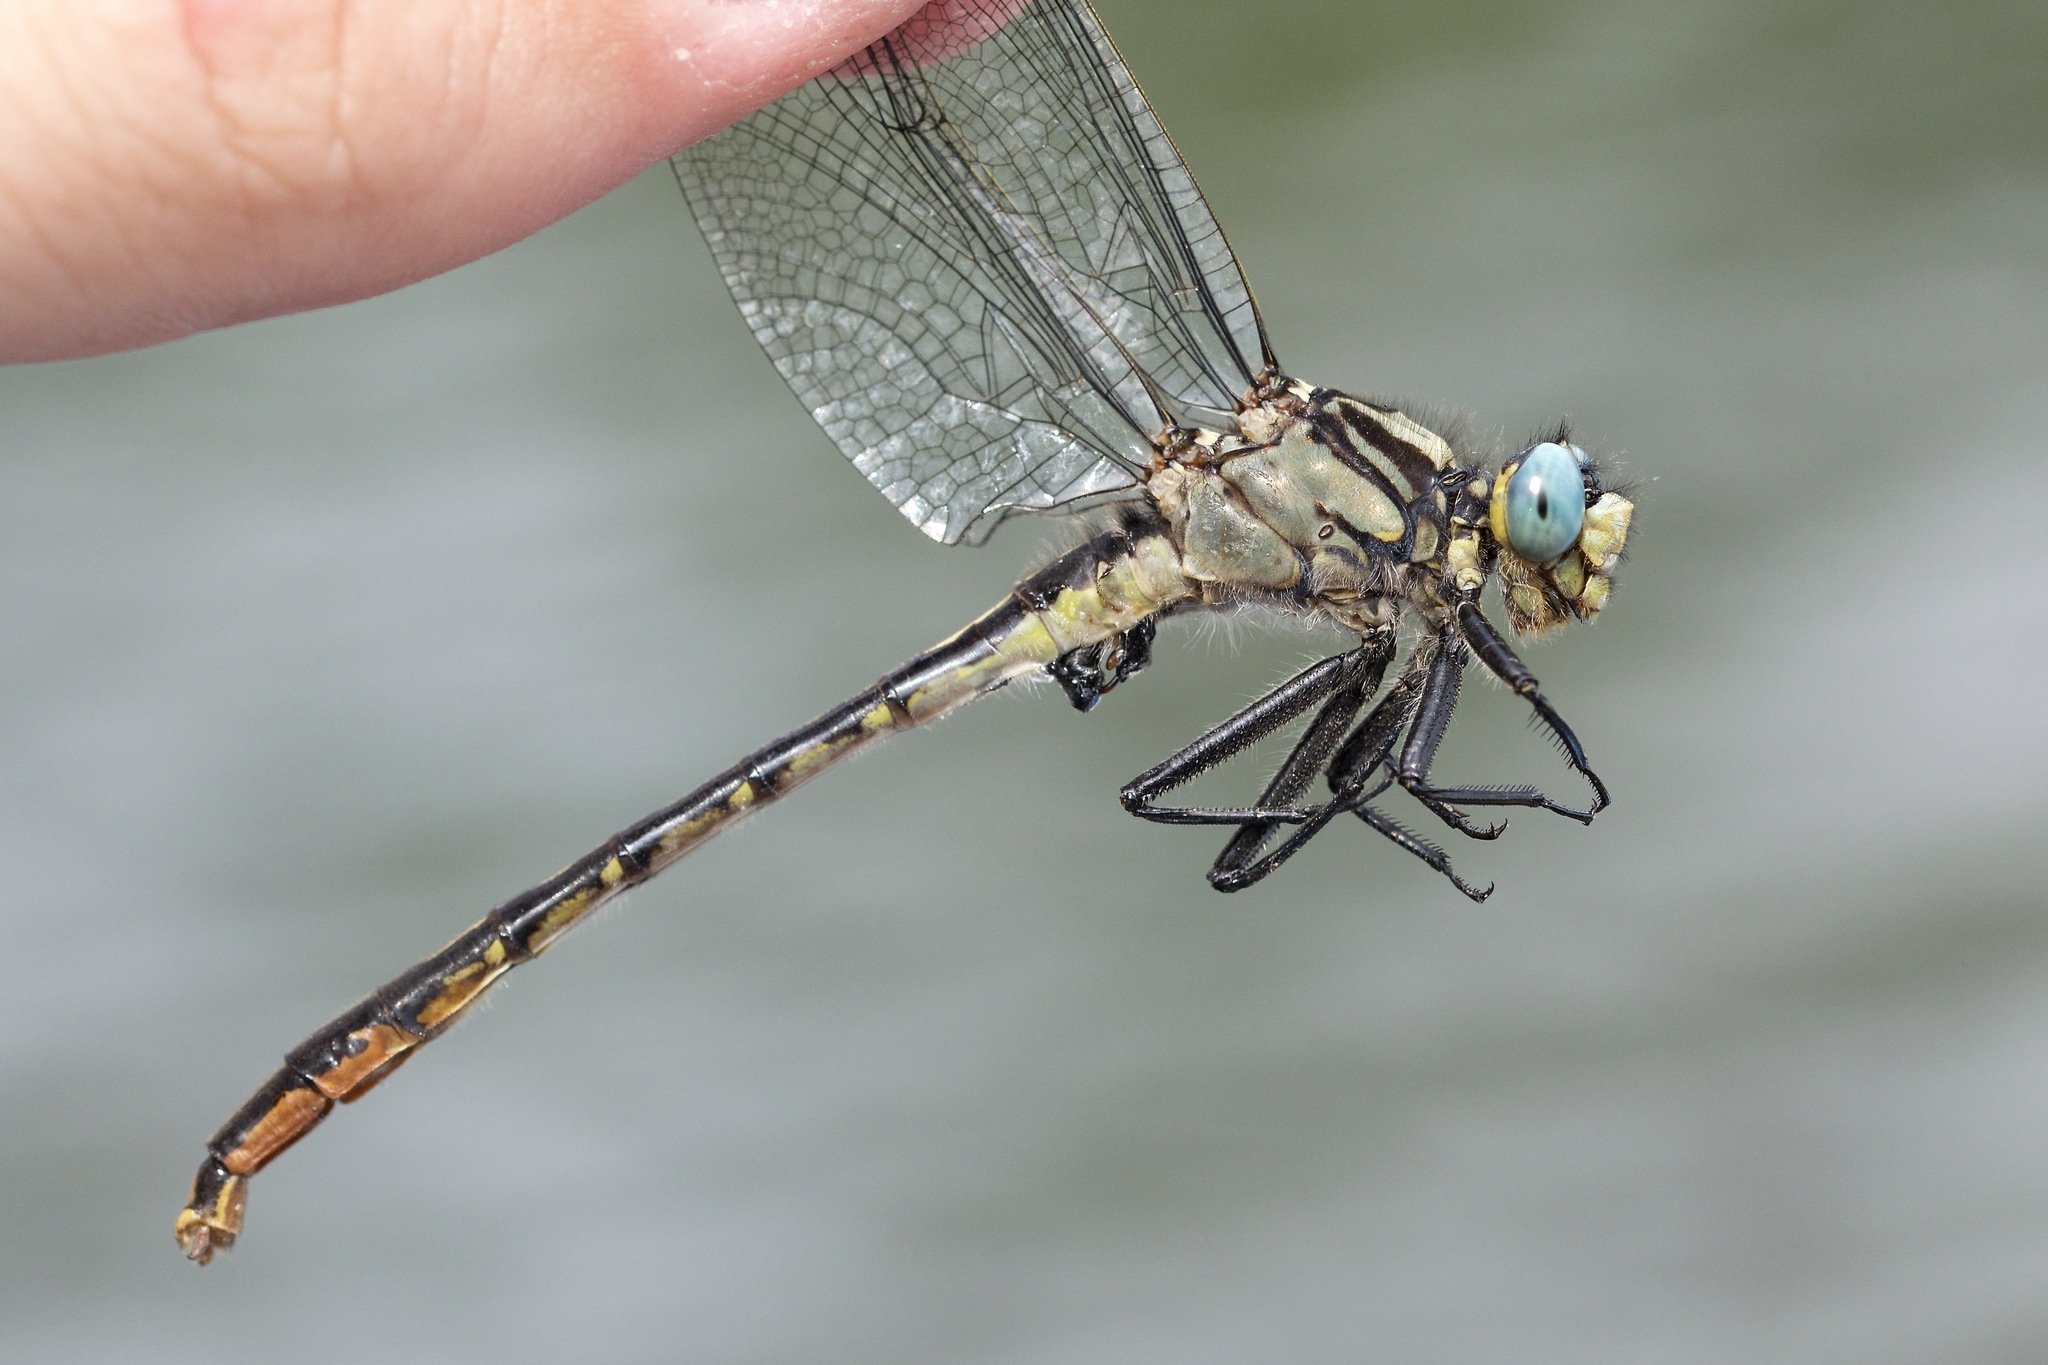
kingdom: Animalia
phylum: Arthropoda
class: Insecta
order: Odonata
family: Gomphidae
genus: Arigomphus
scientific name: Arigomphus furcifer
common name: Lilypad clubtail
